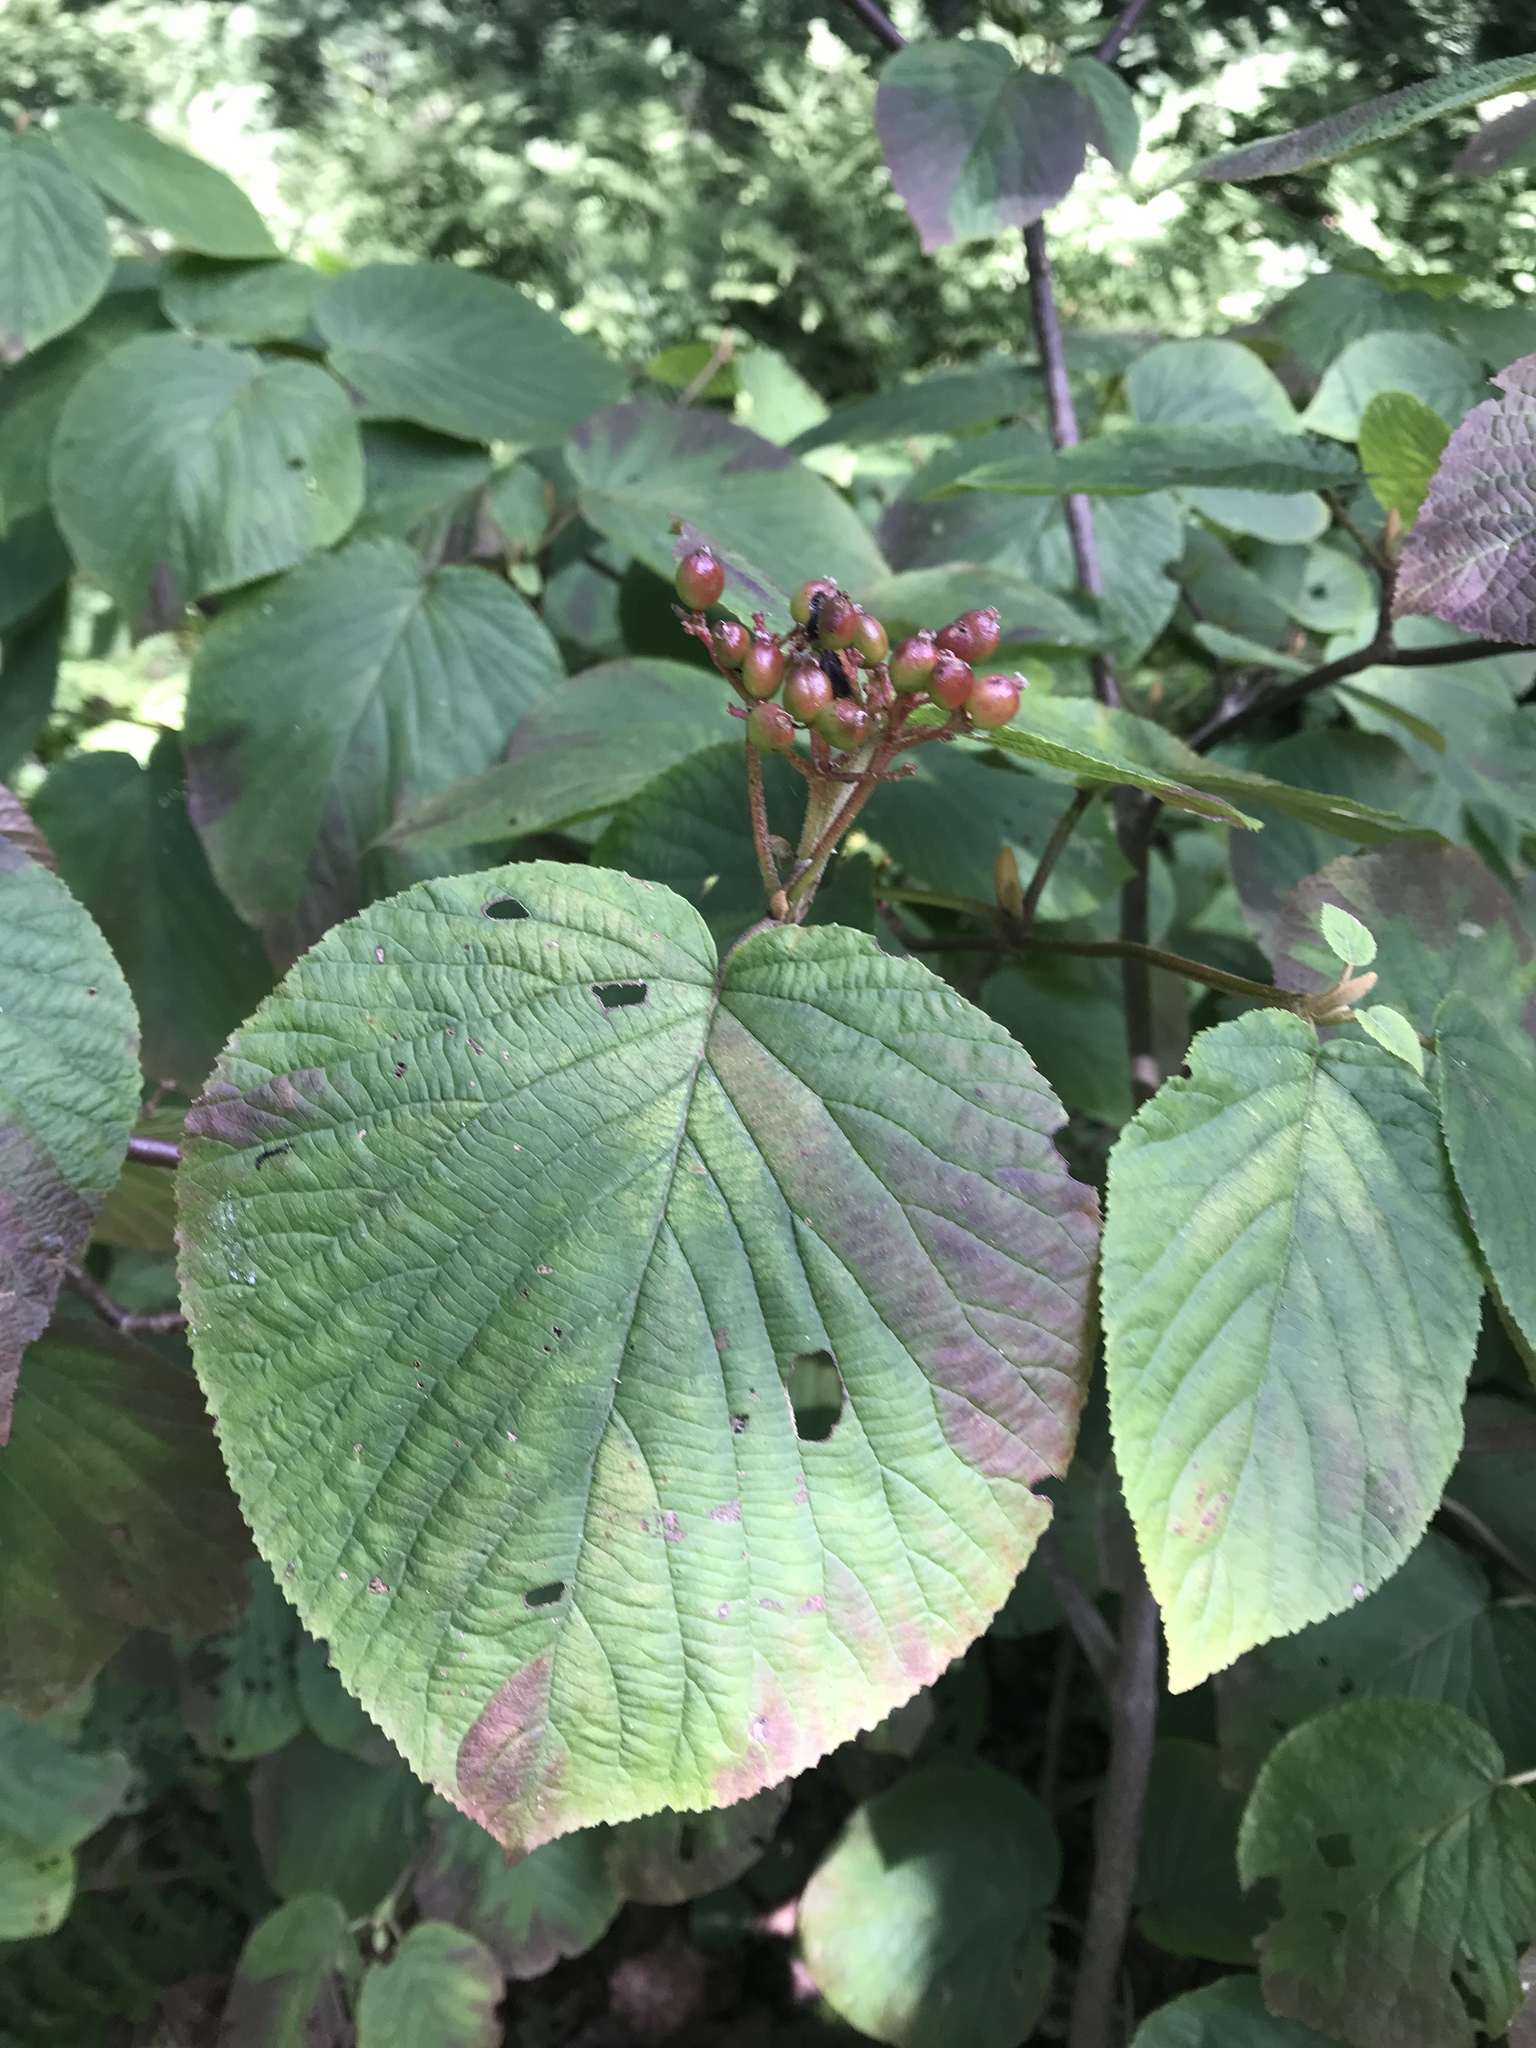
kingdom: Plantae
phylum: Tracheophyta
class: Magnoliopsida
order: Dipsacales
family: Viburnaceae
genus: Viburnum
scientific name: Viburnum lantanoides
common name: Hobblebush
